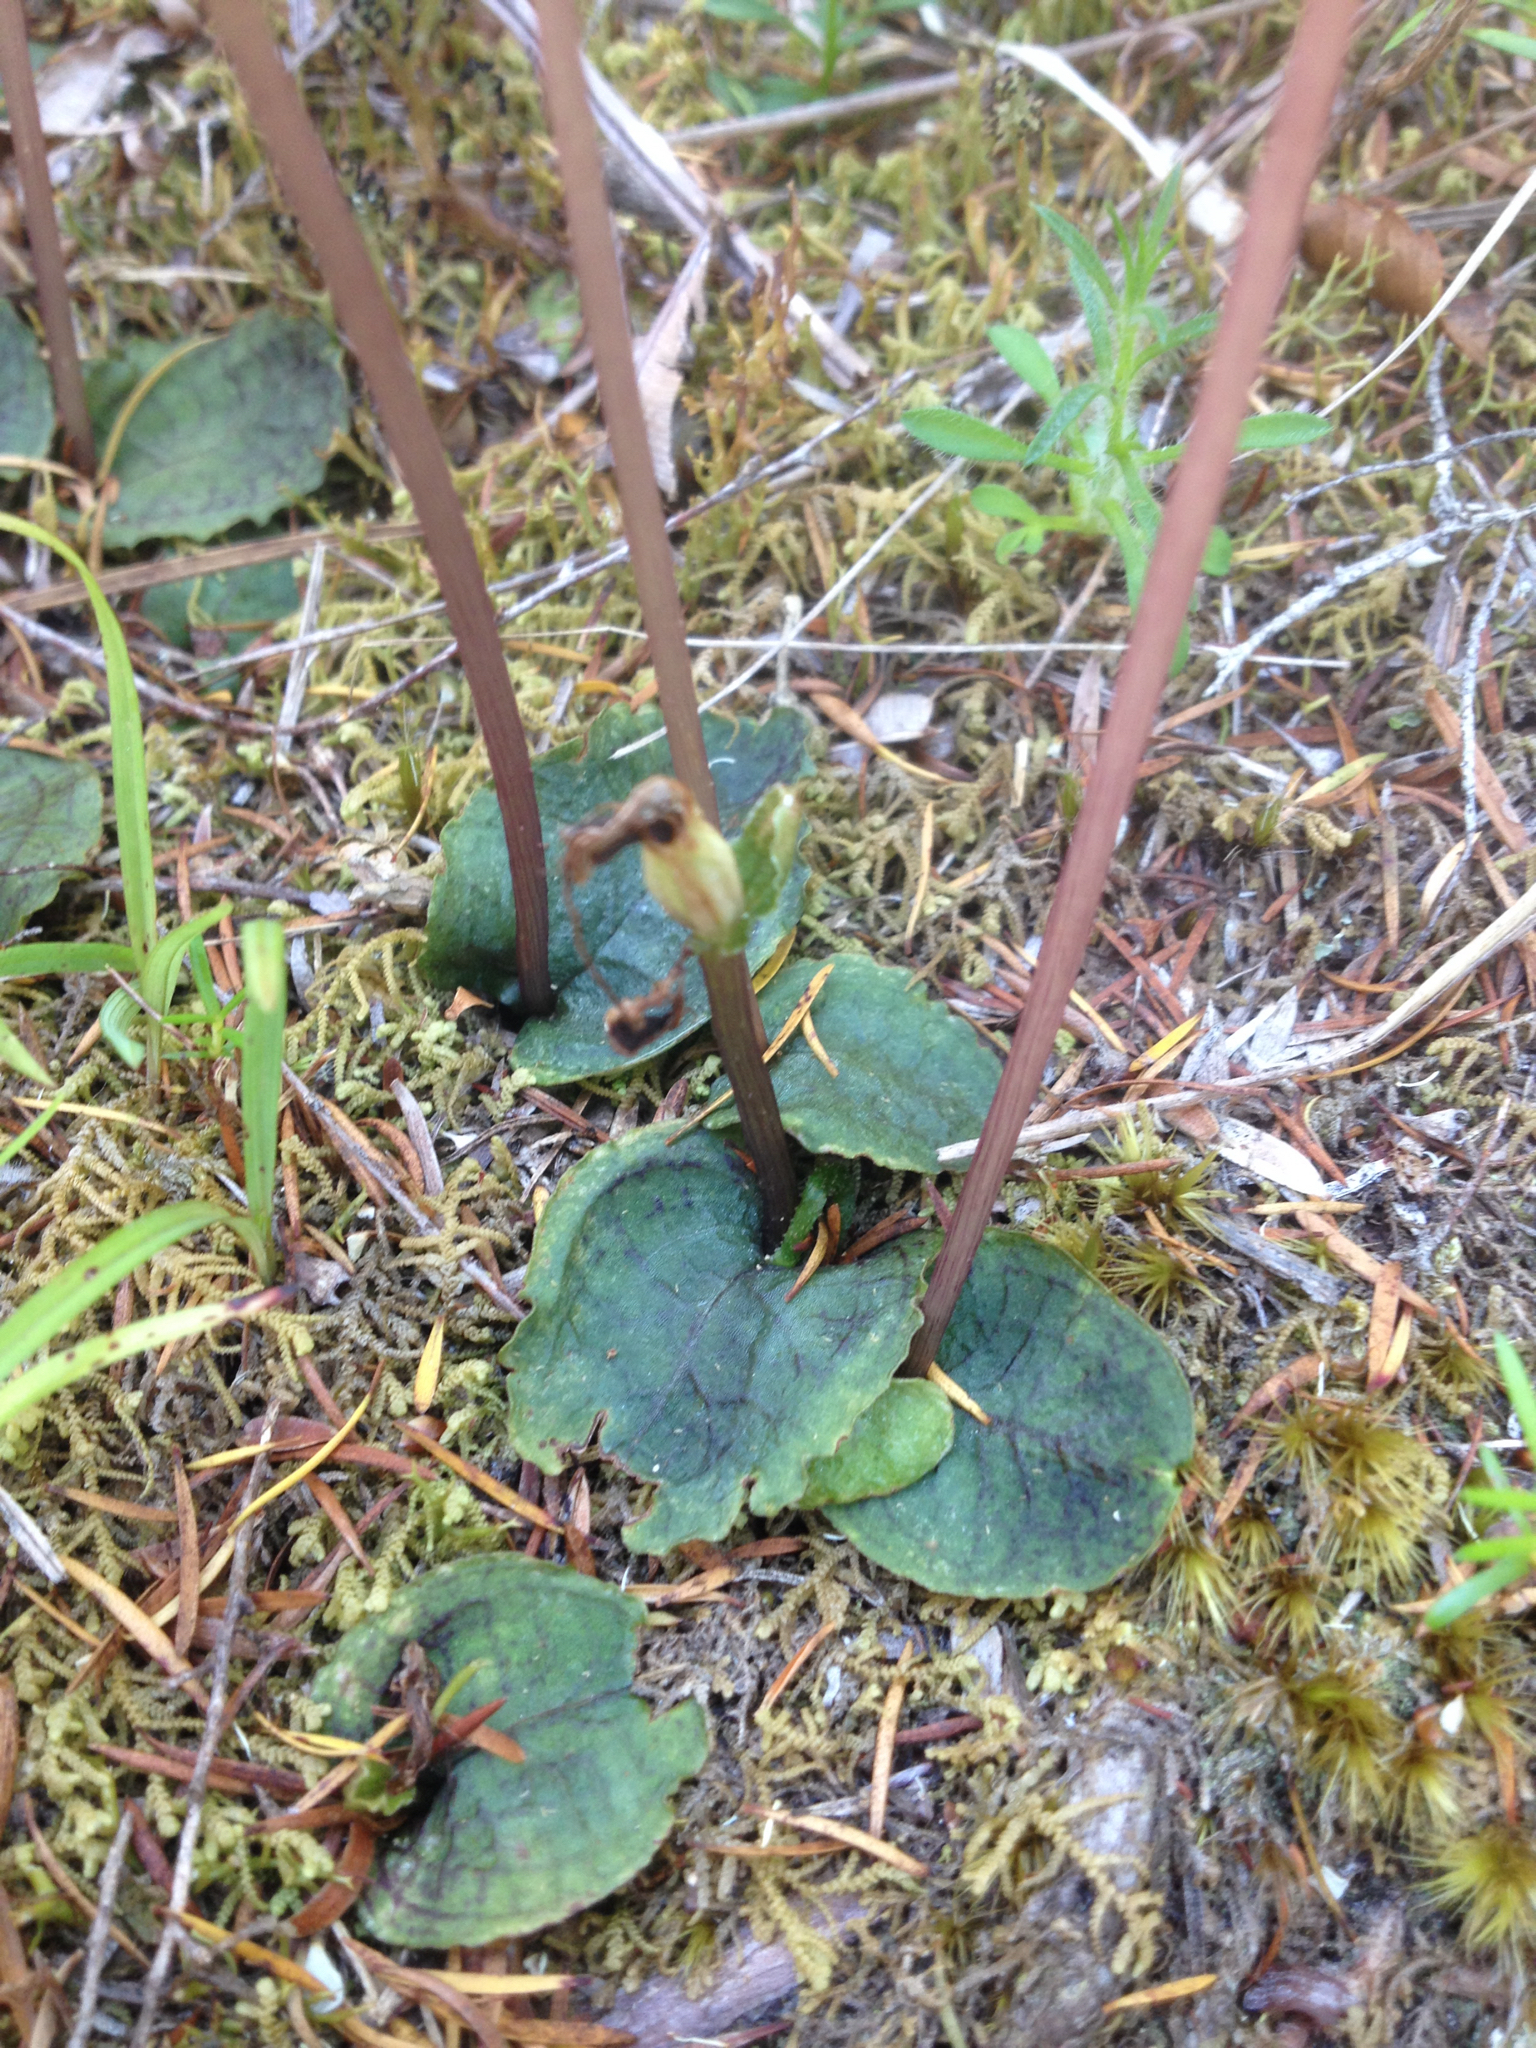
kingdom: Plantae
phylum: Tracheophyta
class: Liliopsida
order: Asparagales
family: Orchidaceae
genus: Corybas
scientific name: Corybas oblongus
